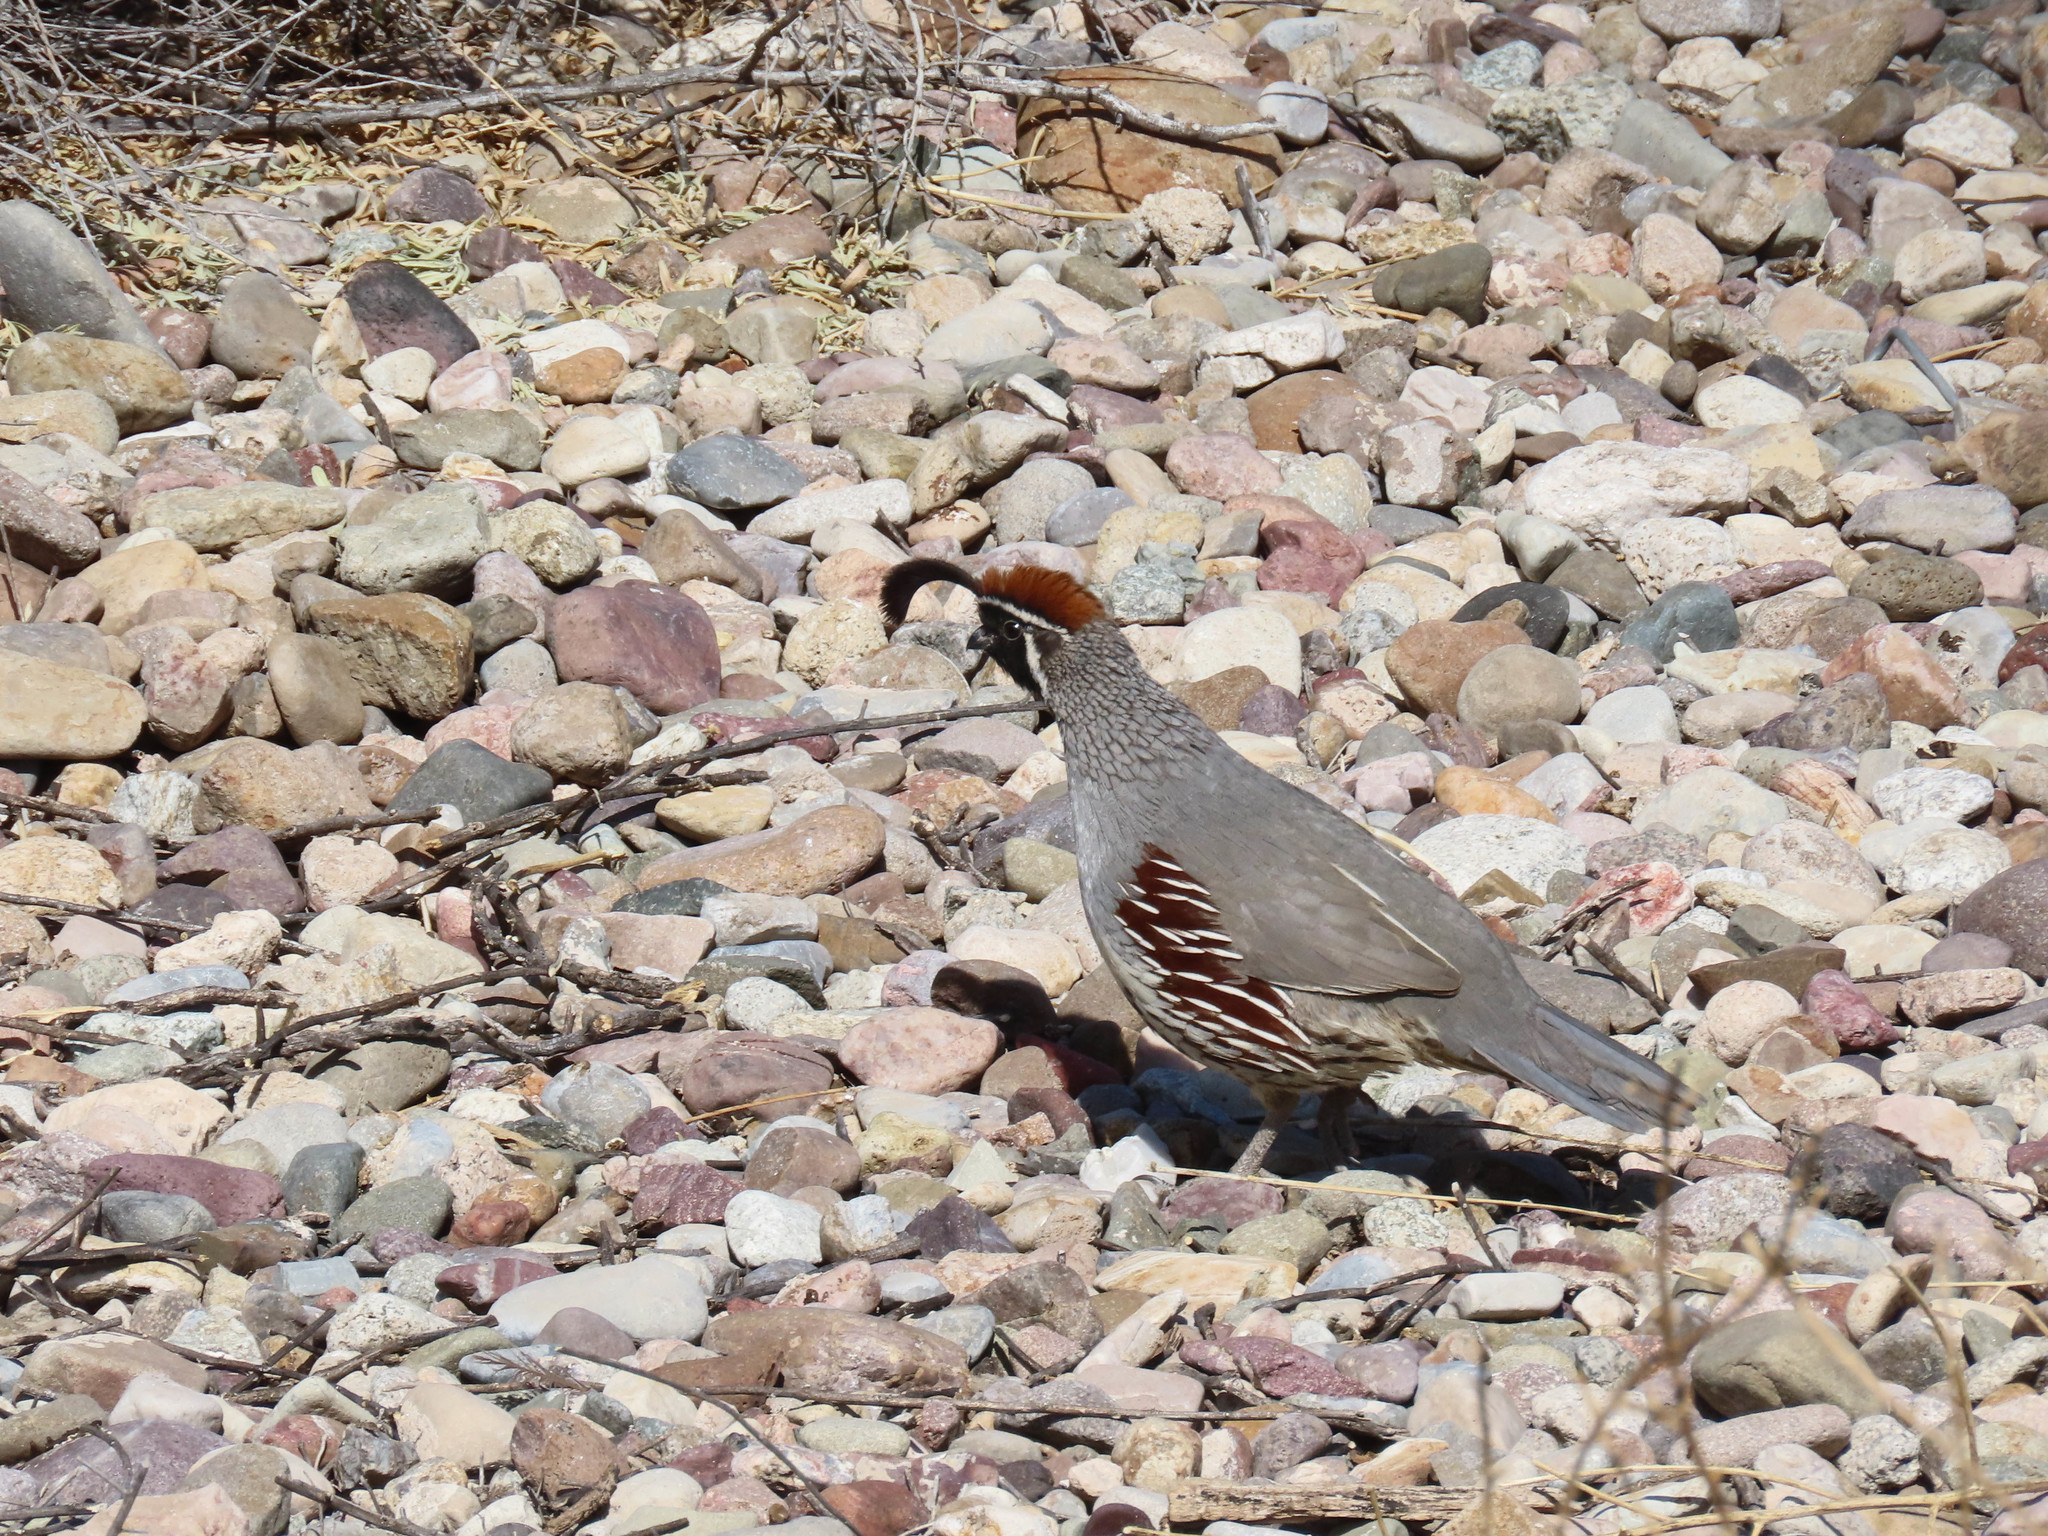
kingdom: Animalia
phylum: Chordata
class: Aves
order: Galliformes
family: Odontophoridae
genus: Callipepla
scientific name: Callipepla gambelii
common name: Gambel's quail
